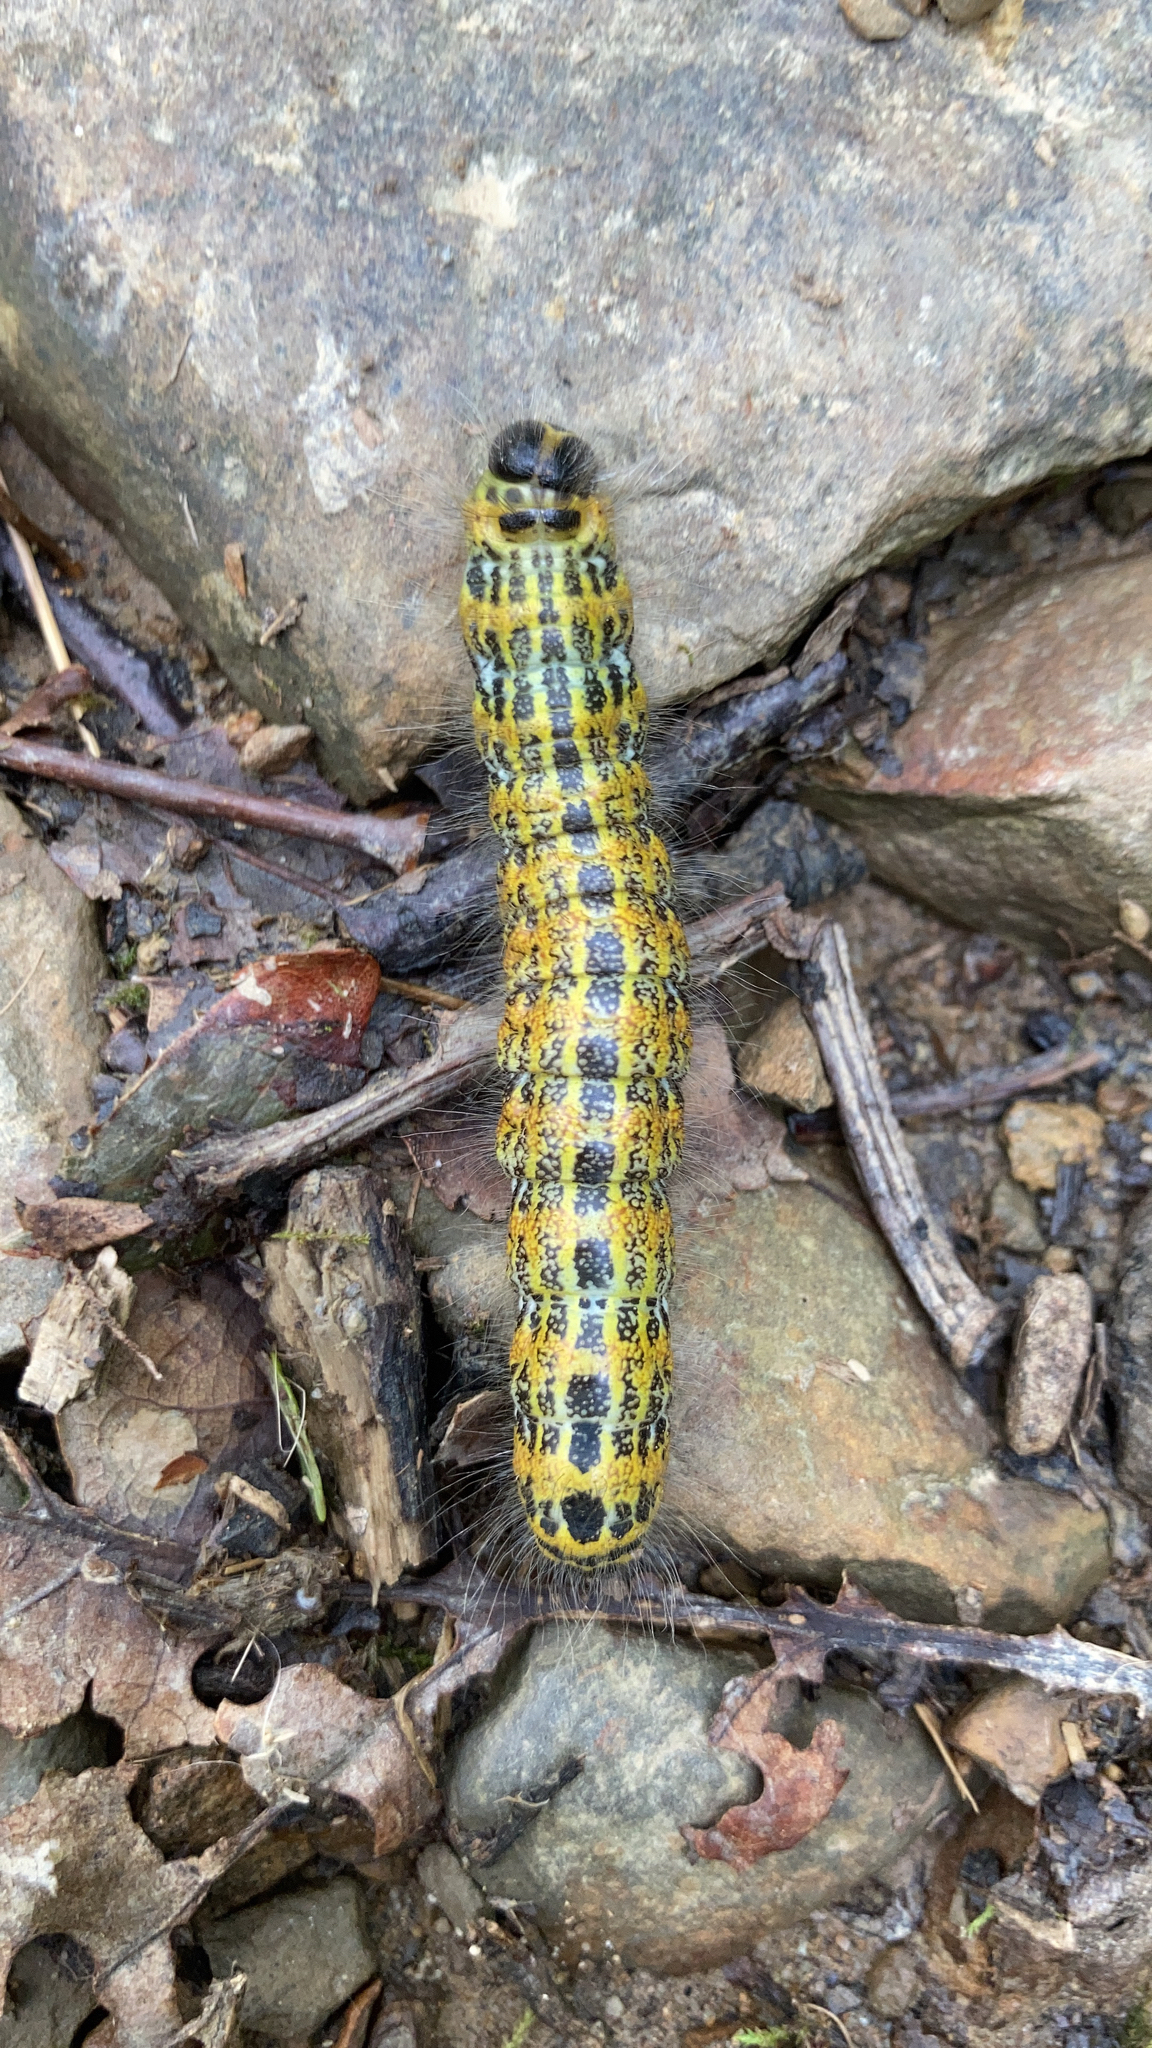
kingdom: Animalia
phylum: Arthropoda
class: Insecta
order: Lepidoptera
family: Notodontidae
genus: Phalera
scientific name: Phalera bucephala
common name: Buff-tip
